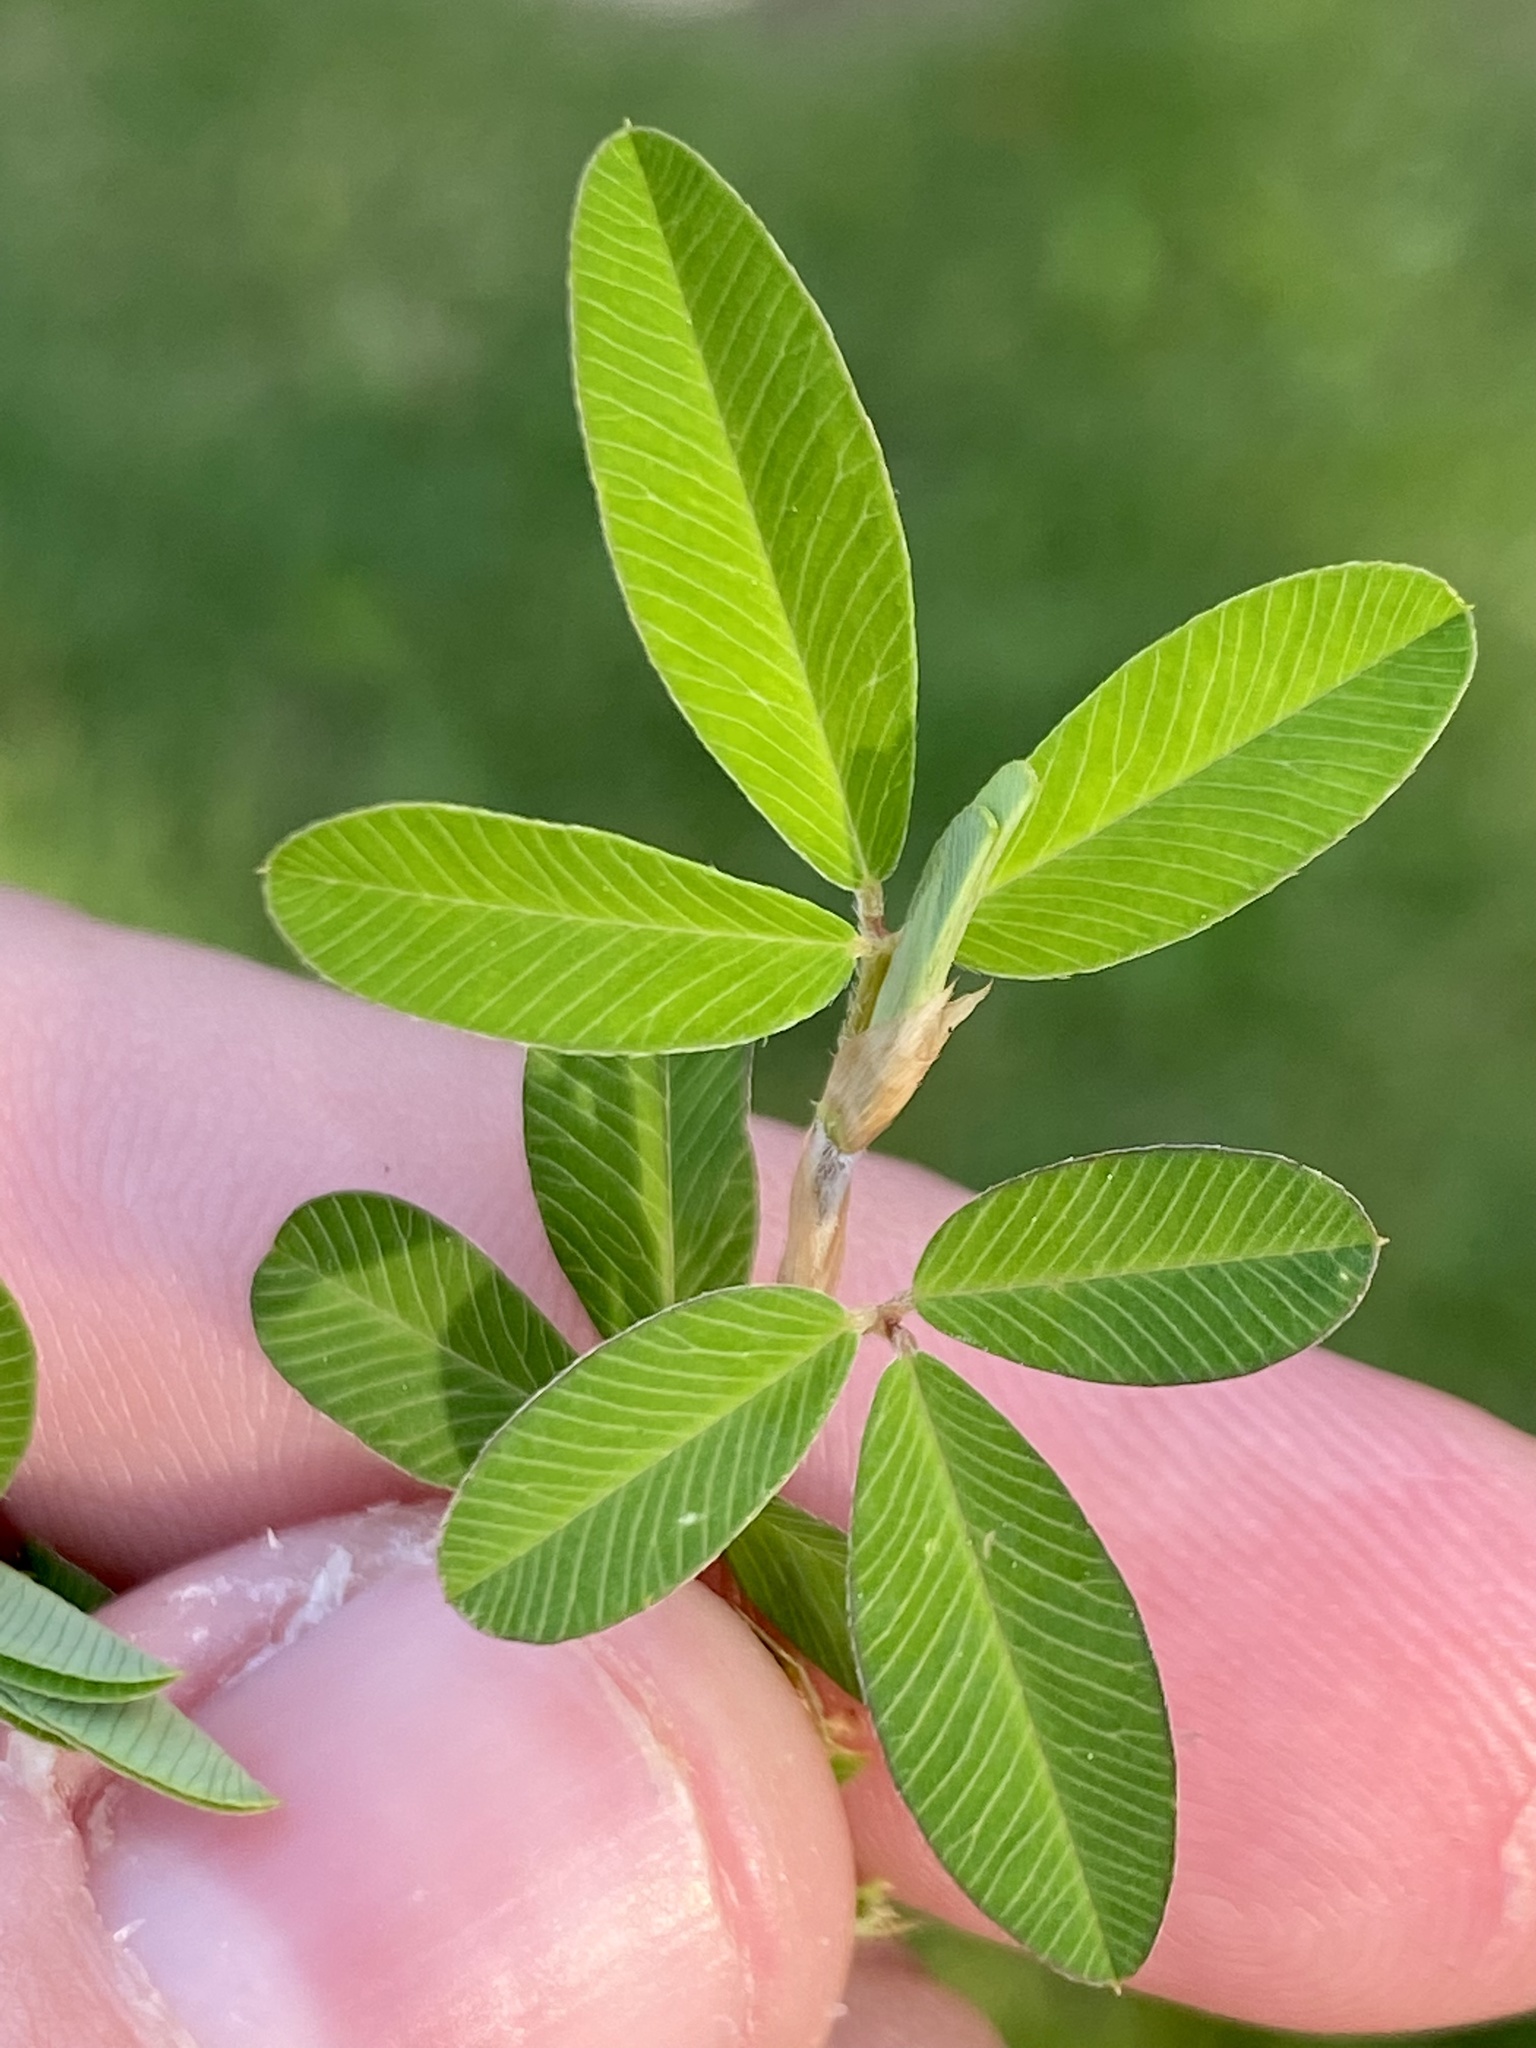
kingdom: Plantae
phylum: Tracheophyta
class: Magnoliopsida
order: Fabales
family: Fabaceae
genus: Kummerowia
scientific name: Kummerowia striata
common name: Japanese clover
